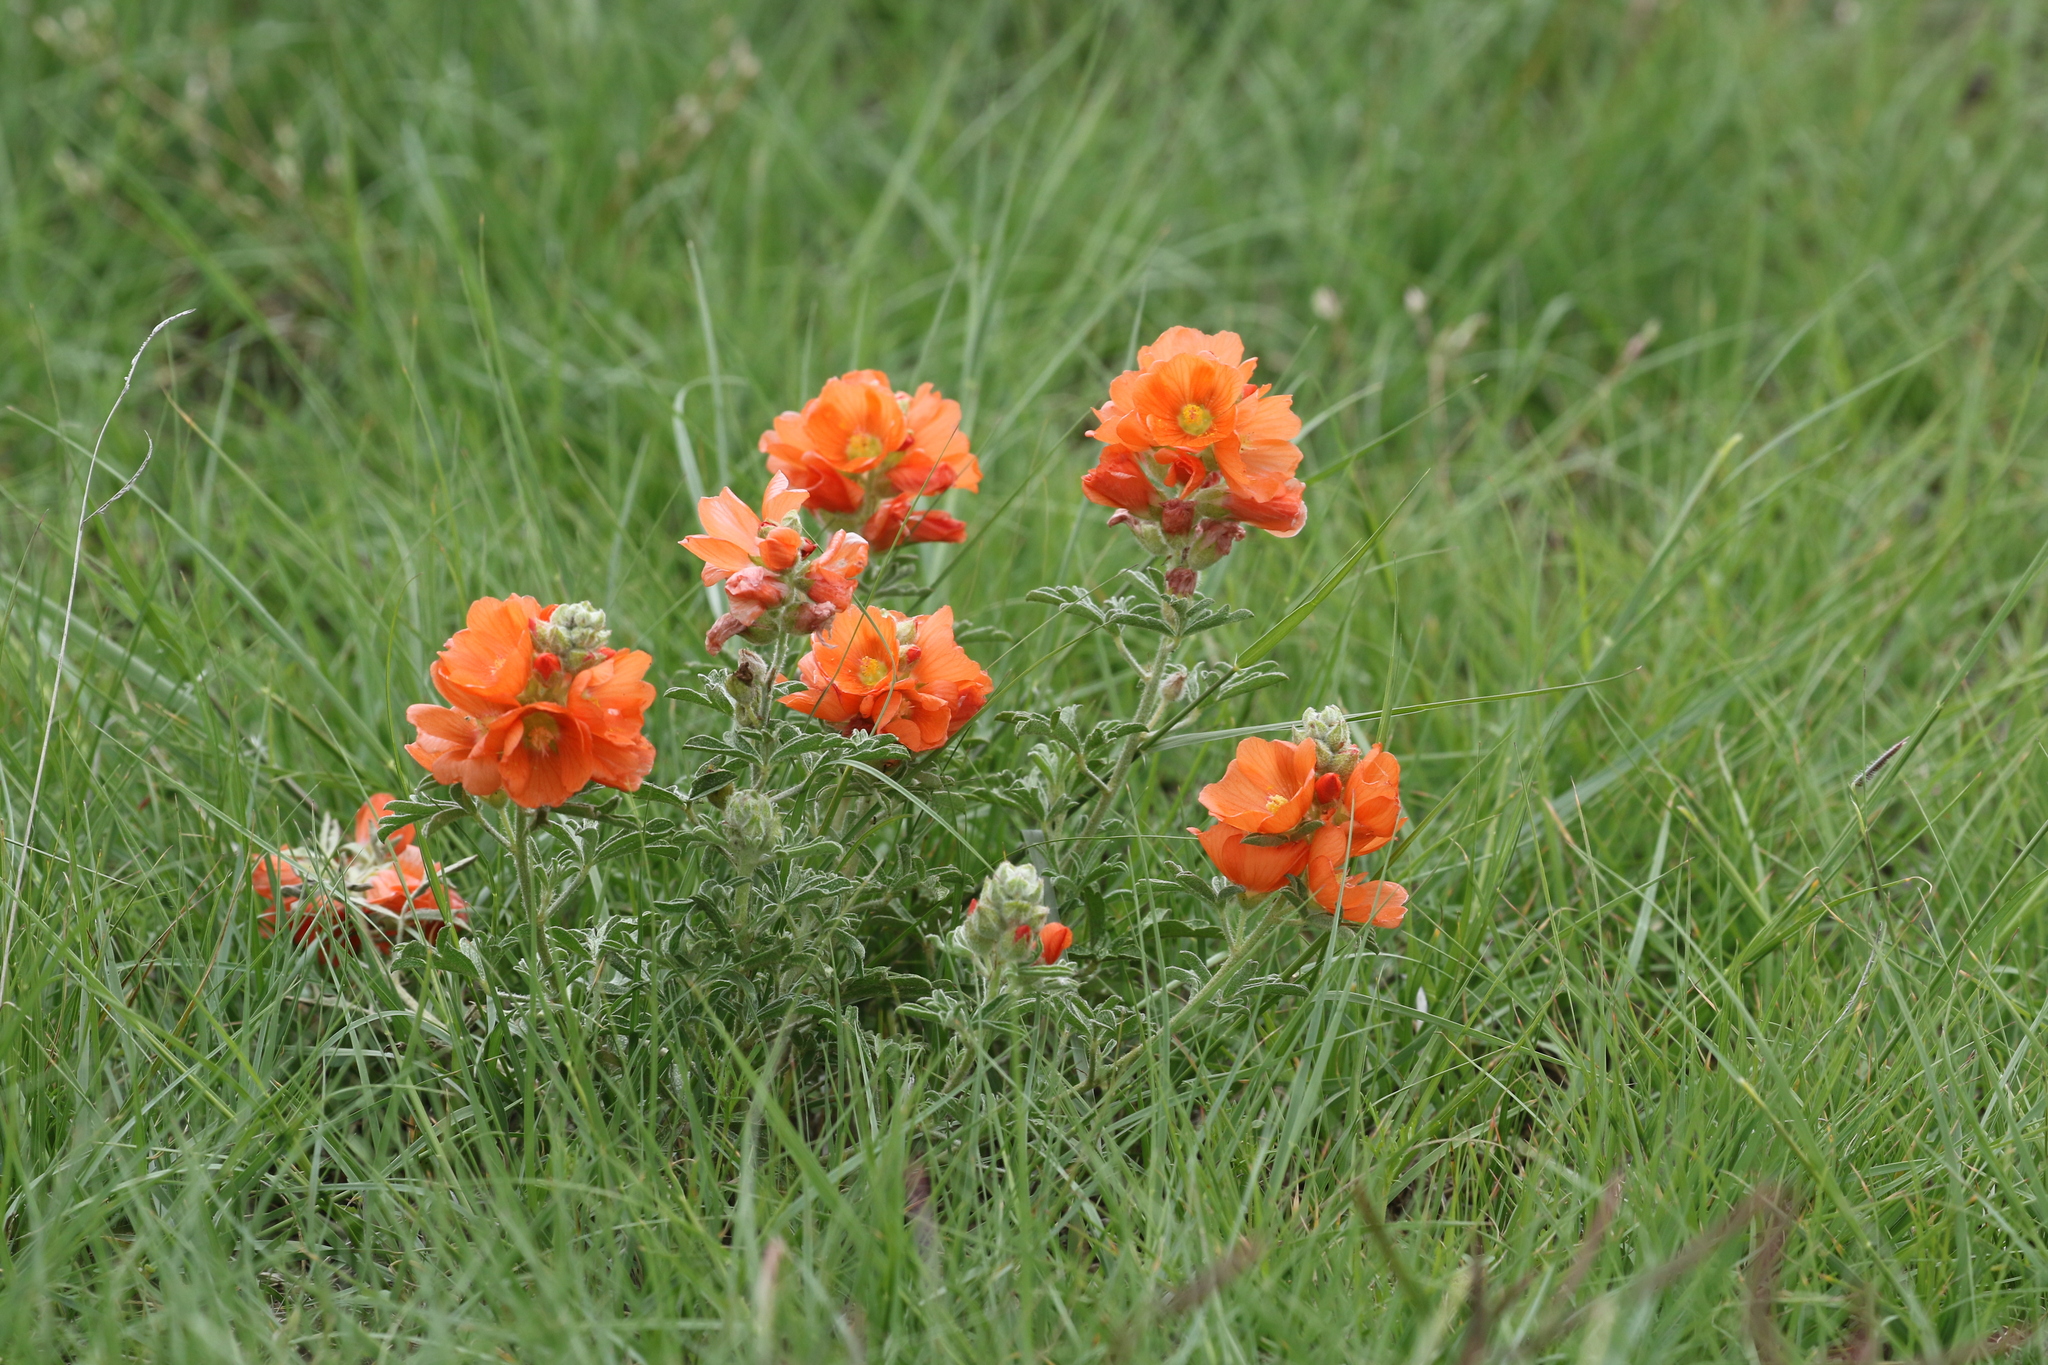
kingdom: Plantae
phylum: Tracheophyta
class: Magnoliopsida
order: Malvales
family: Malvaceae
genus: Sphaeralcea
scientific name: Sphaeralcea coccinea
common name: Moss-rose
